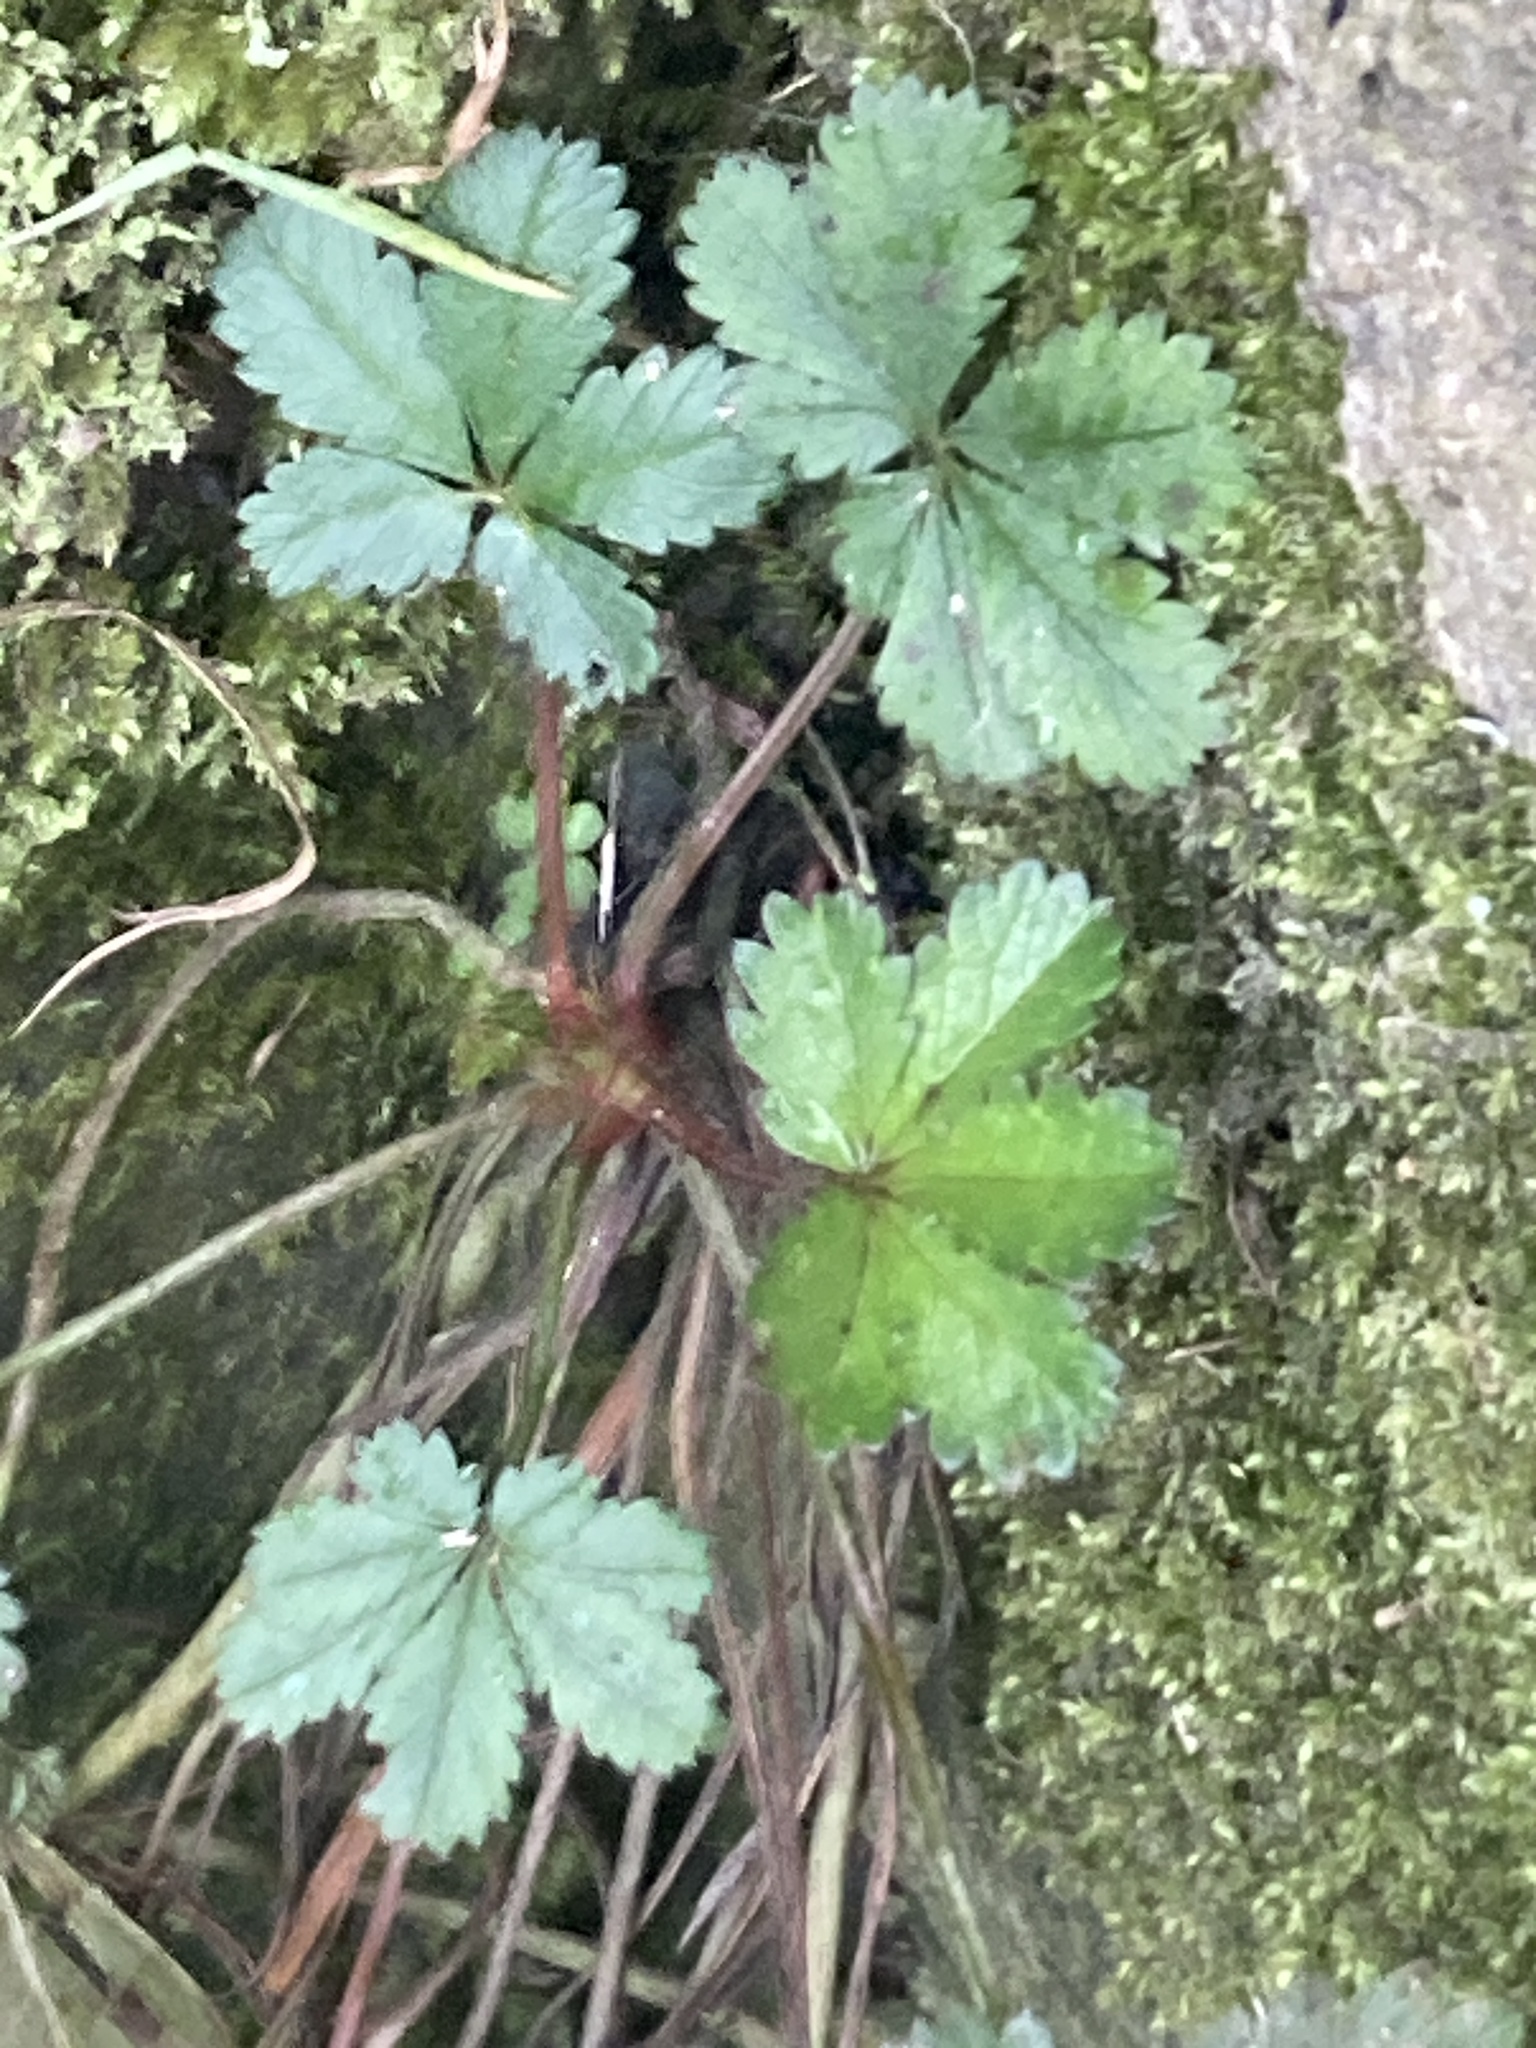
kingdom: Plantae
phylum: Tracheophyta
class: Magnoliopsida
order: Rosales
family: Rosaceae
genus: Potentilla
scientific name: Potentilla reptans
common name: Creeping cinquefoil
